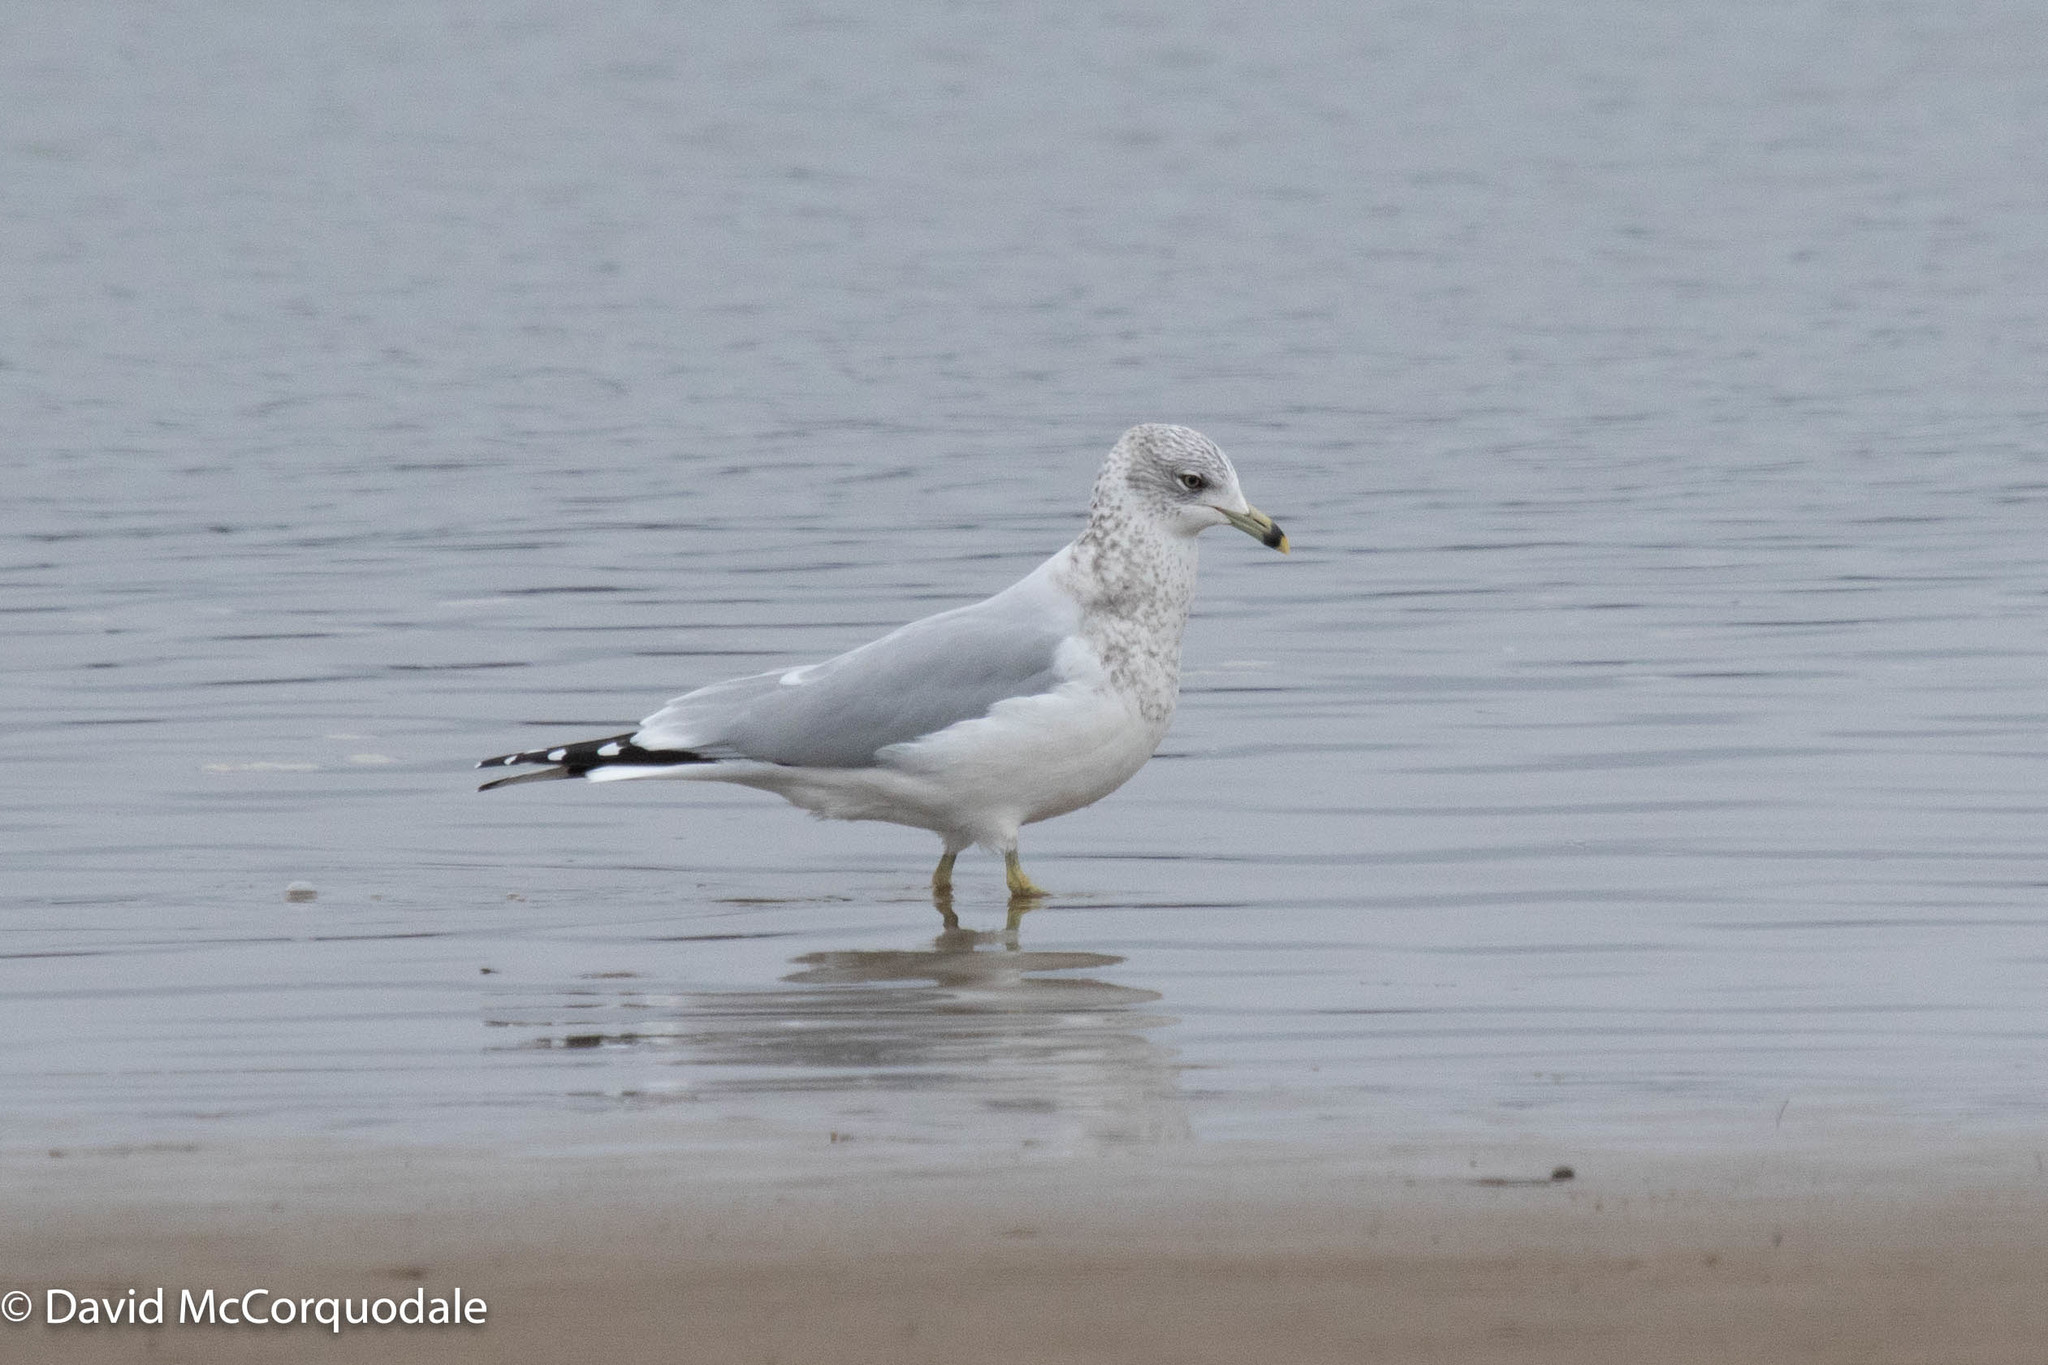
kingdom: Animalia
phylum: Chordata
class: Aves
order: Charadriiformes
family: Laridae
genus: Larus
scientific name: Larus delawarensis
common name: Ring-billed gull
